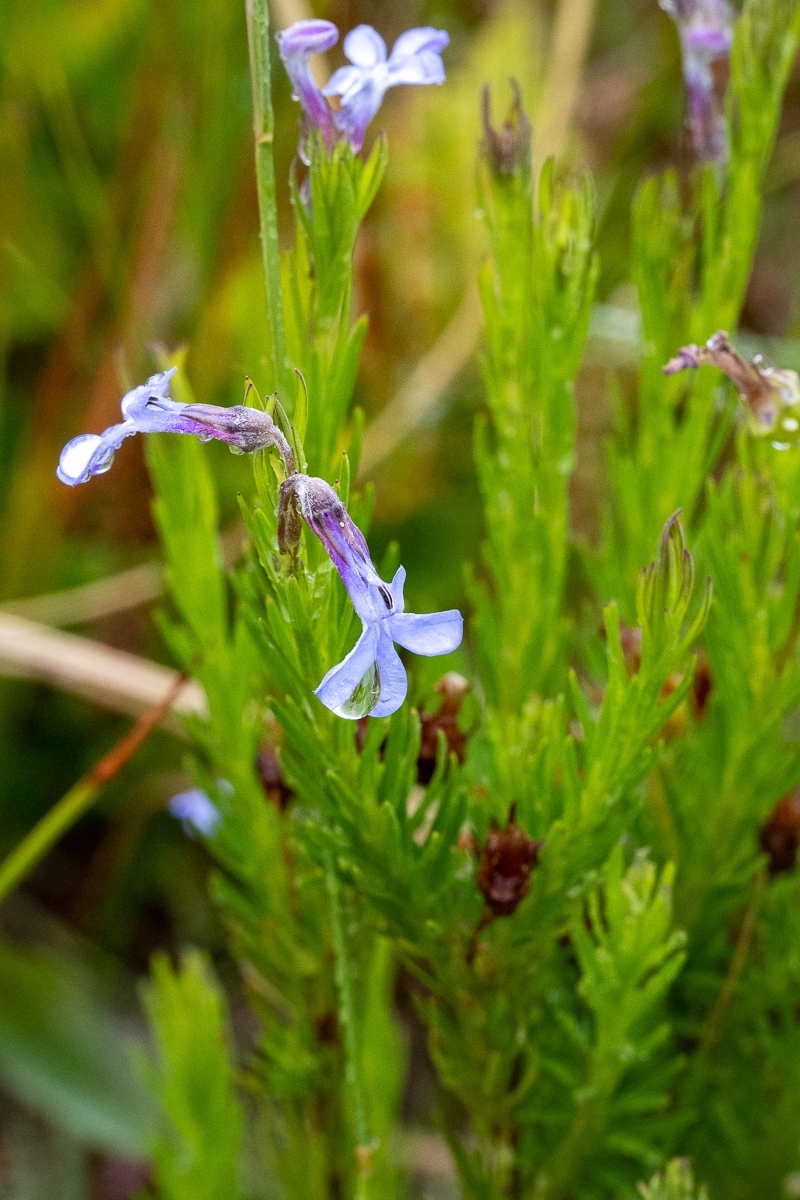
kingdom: Plantae
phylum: Tracheophyta
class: Magnoliopsida
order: Asterales
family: Campanulaceae
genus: Lobelia
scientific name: Lobelia pinifolia
